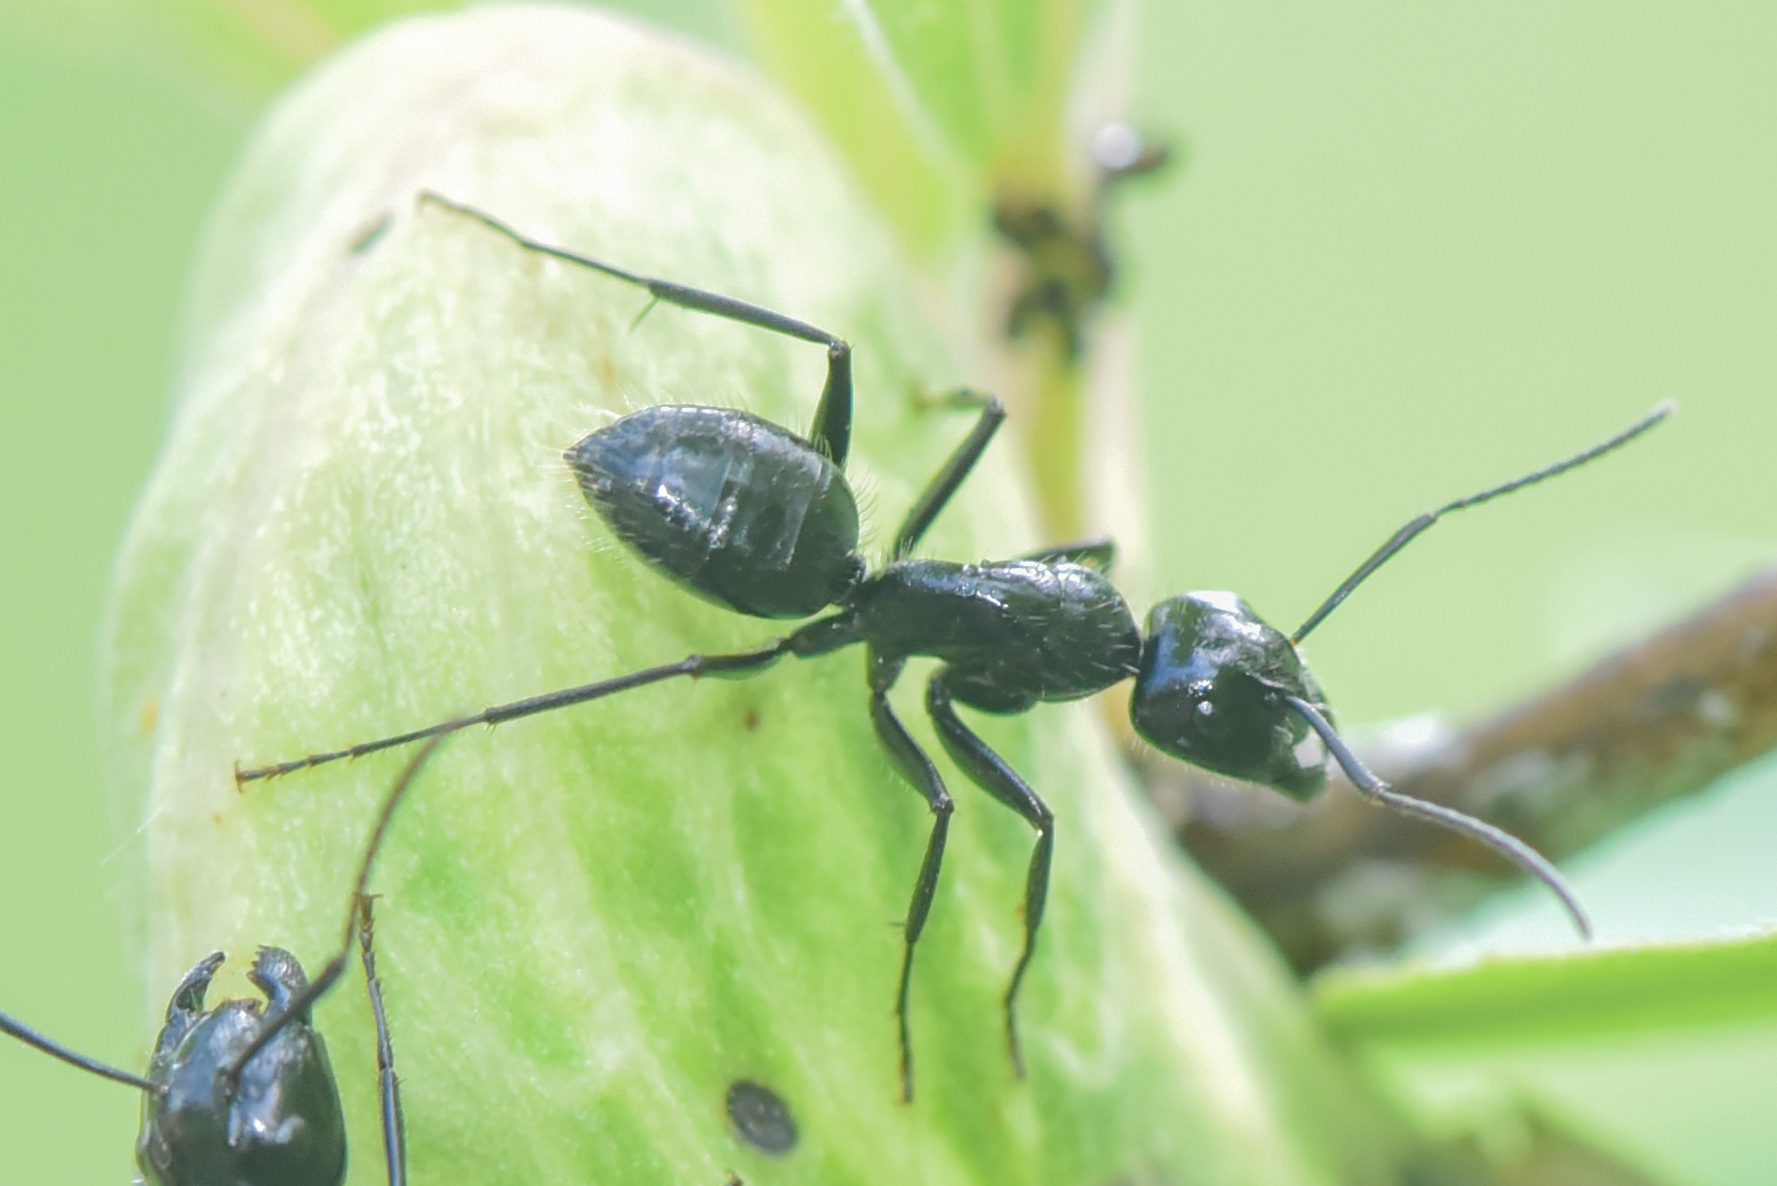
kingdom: Animalia
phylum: Arthropoda
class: Insecta
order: Hymenoptera
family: Formicidae
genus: Camponotus
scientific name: Camponotus
